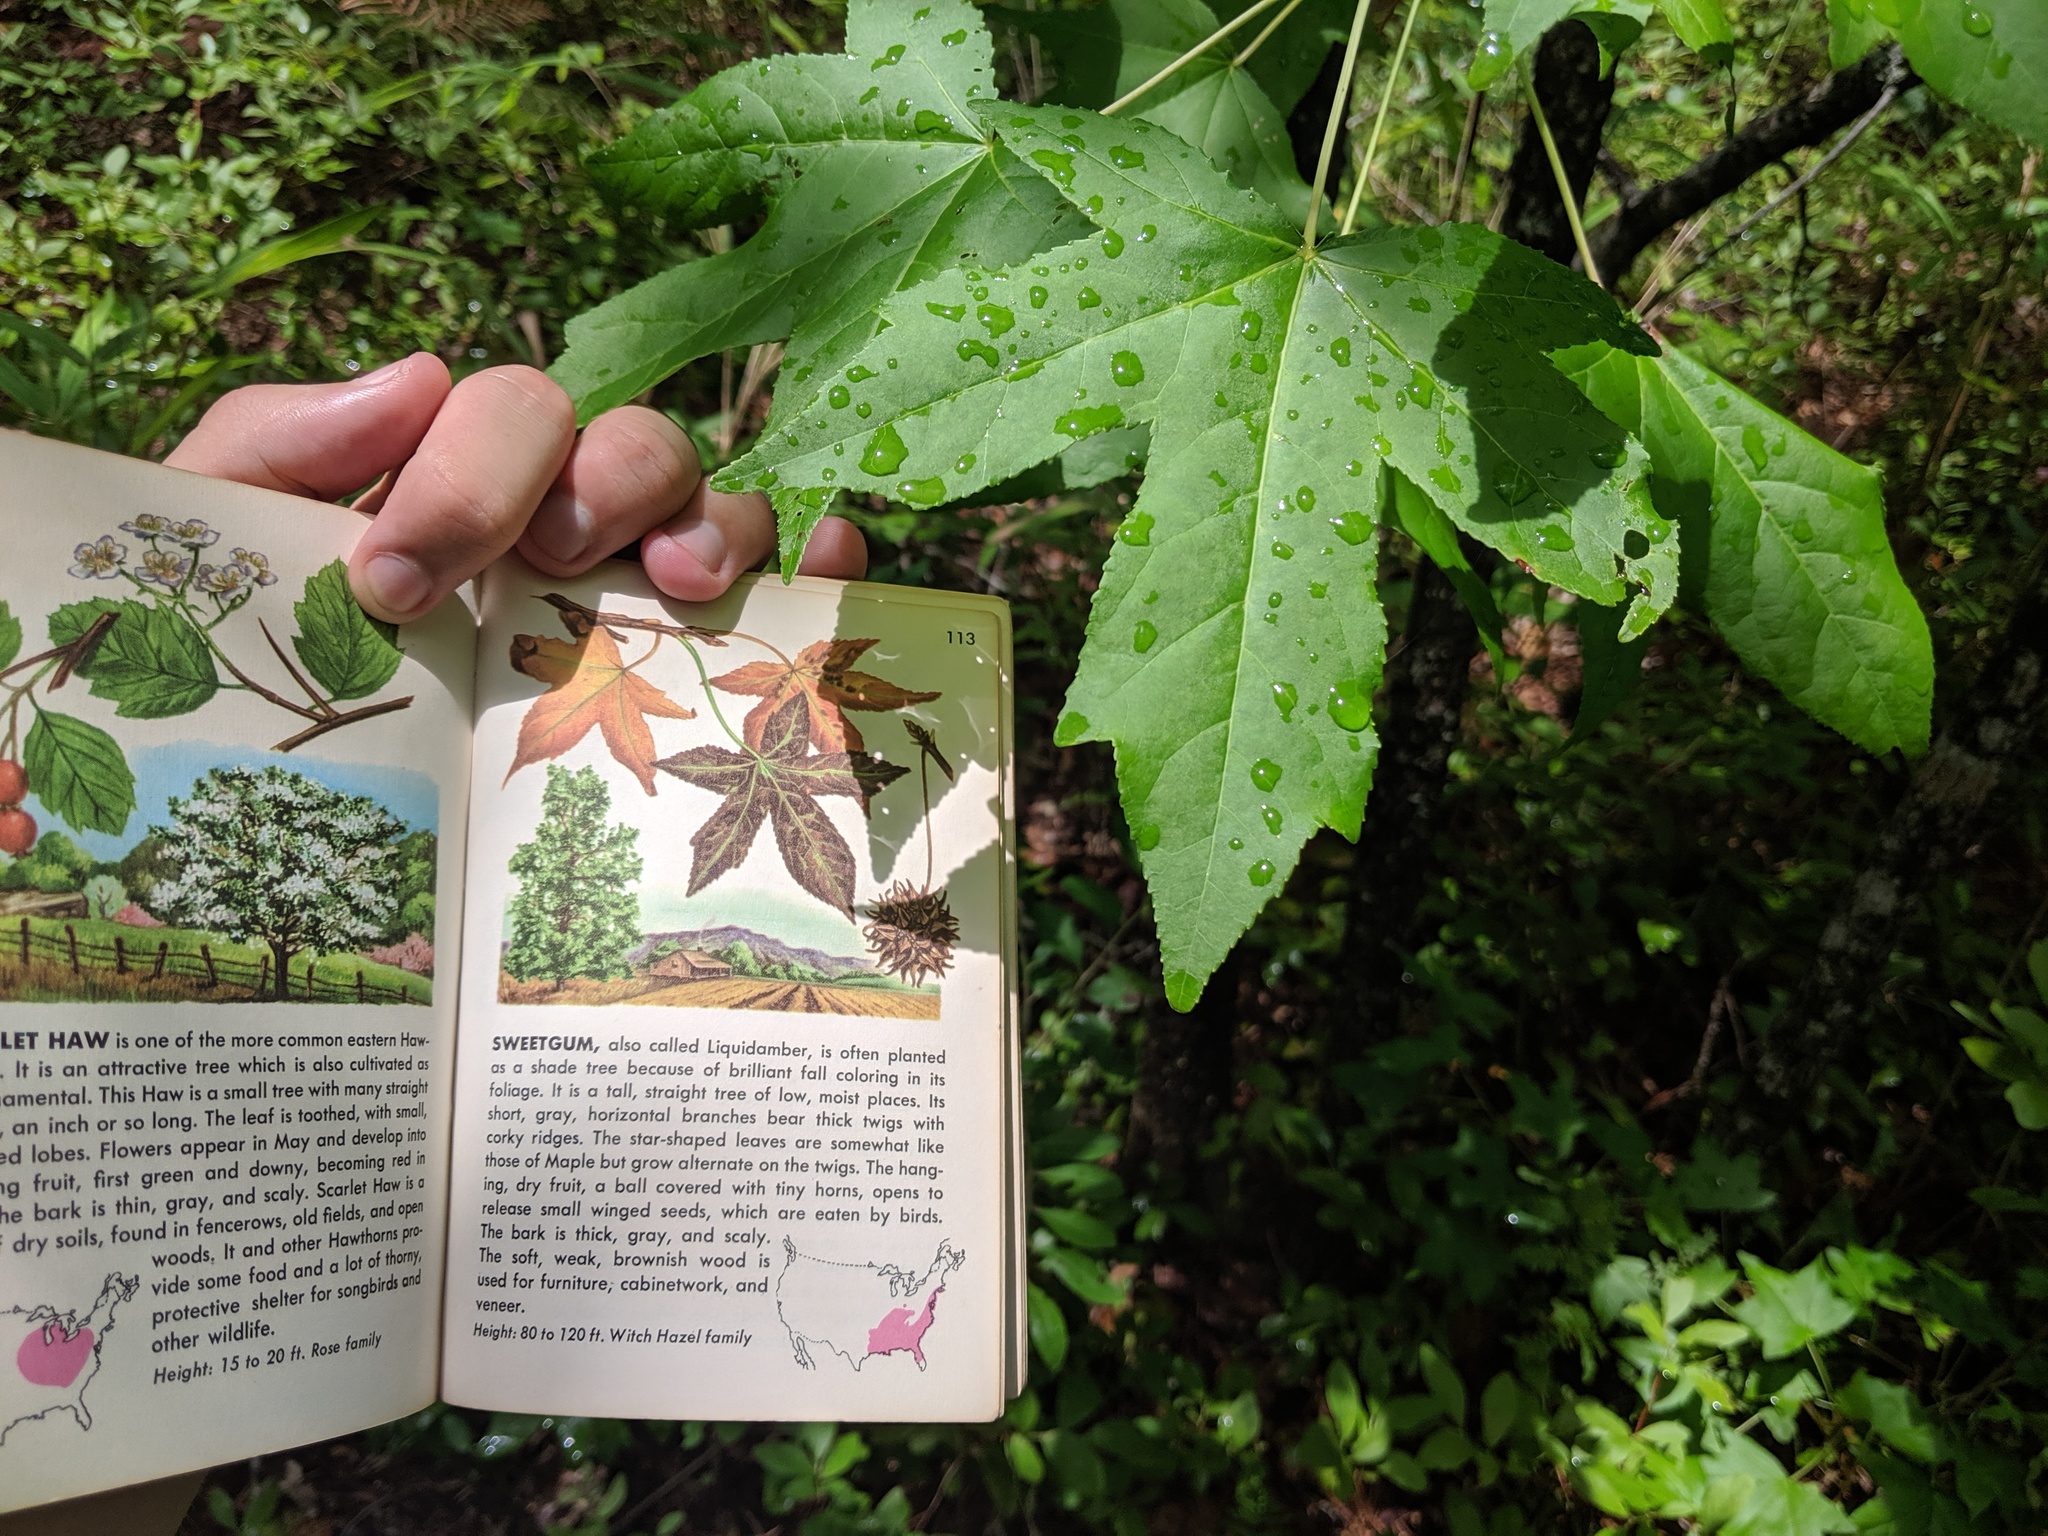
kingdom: Plantae
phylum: Tracheophyta
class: Magnoliopsida
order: Saxifragales
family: Altingiaceae
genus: Liquidambar
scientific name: Liquidambar styraciflua
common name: Sweet gum
